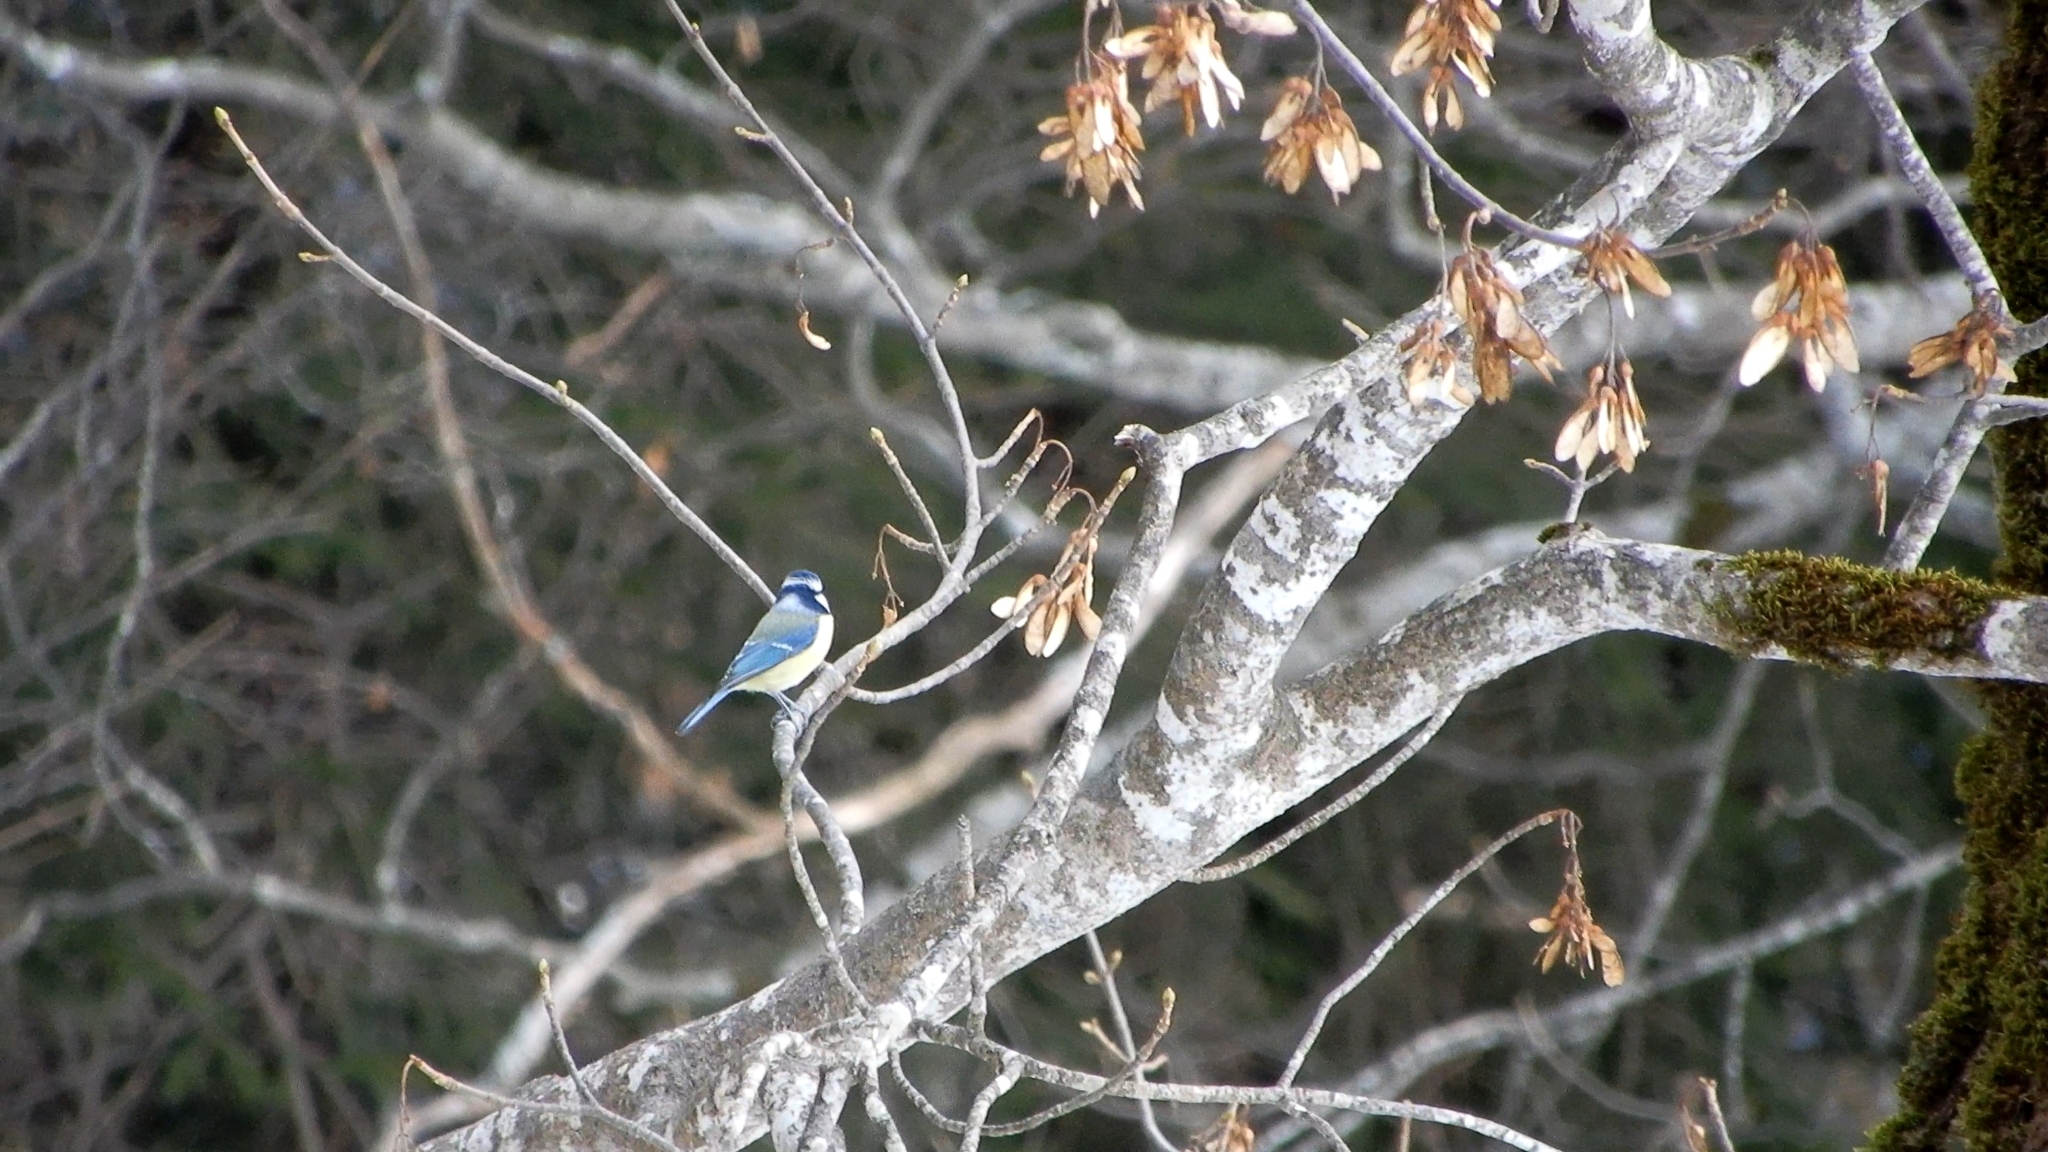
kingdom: Animalia
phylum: Chordata
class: Aves
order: Passeriformes
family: Paridae
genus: Cyanistes
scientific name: Cyanistes caeruleus
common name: Eurasian blue tit
